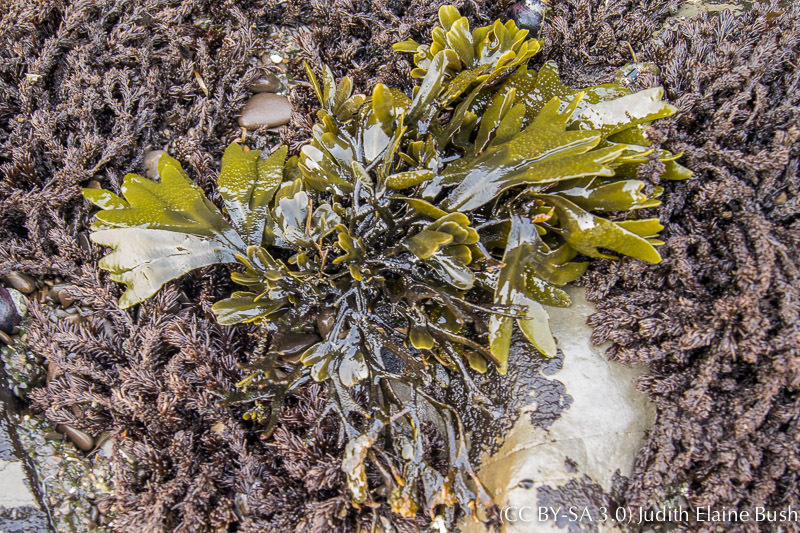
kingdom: Chromista
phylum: Ochrophyta
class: Phaeophyceae
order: Fucales
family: Fucaceae
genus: Fucus
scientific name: Fucus distichus
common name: Rockweed
